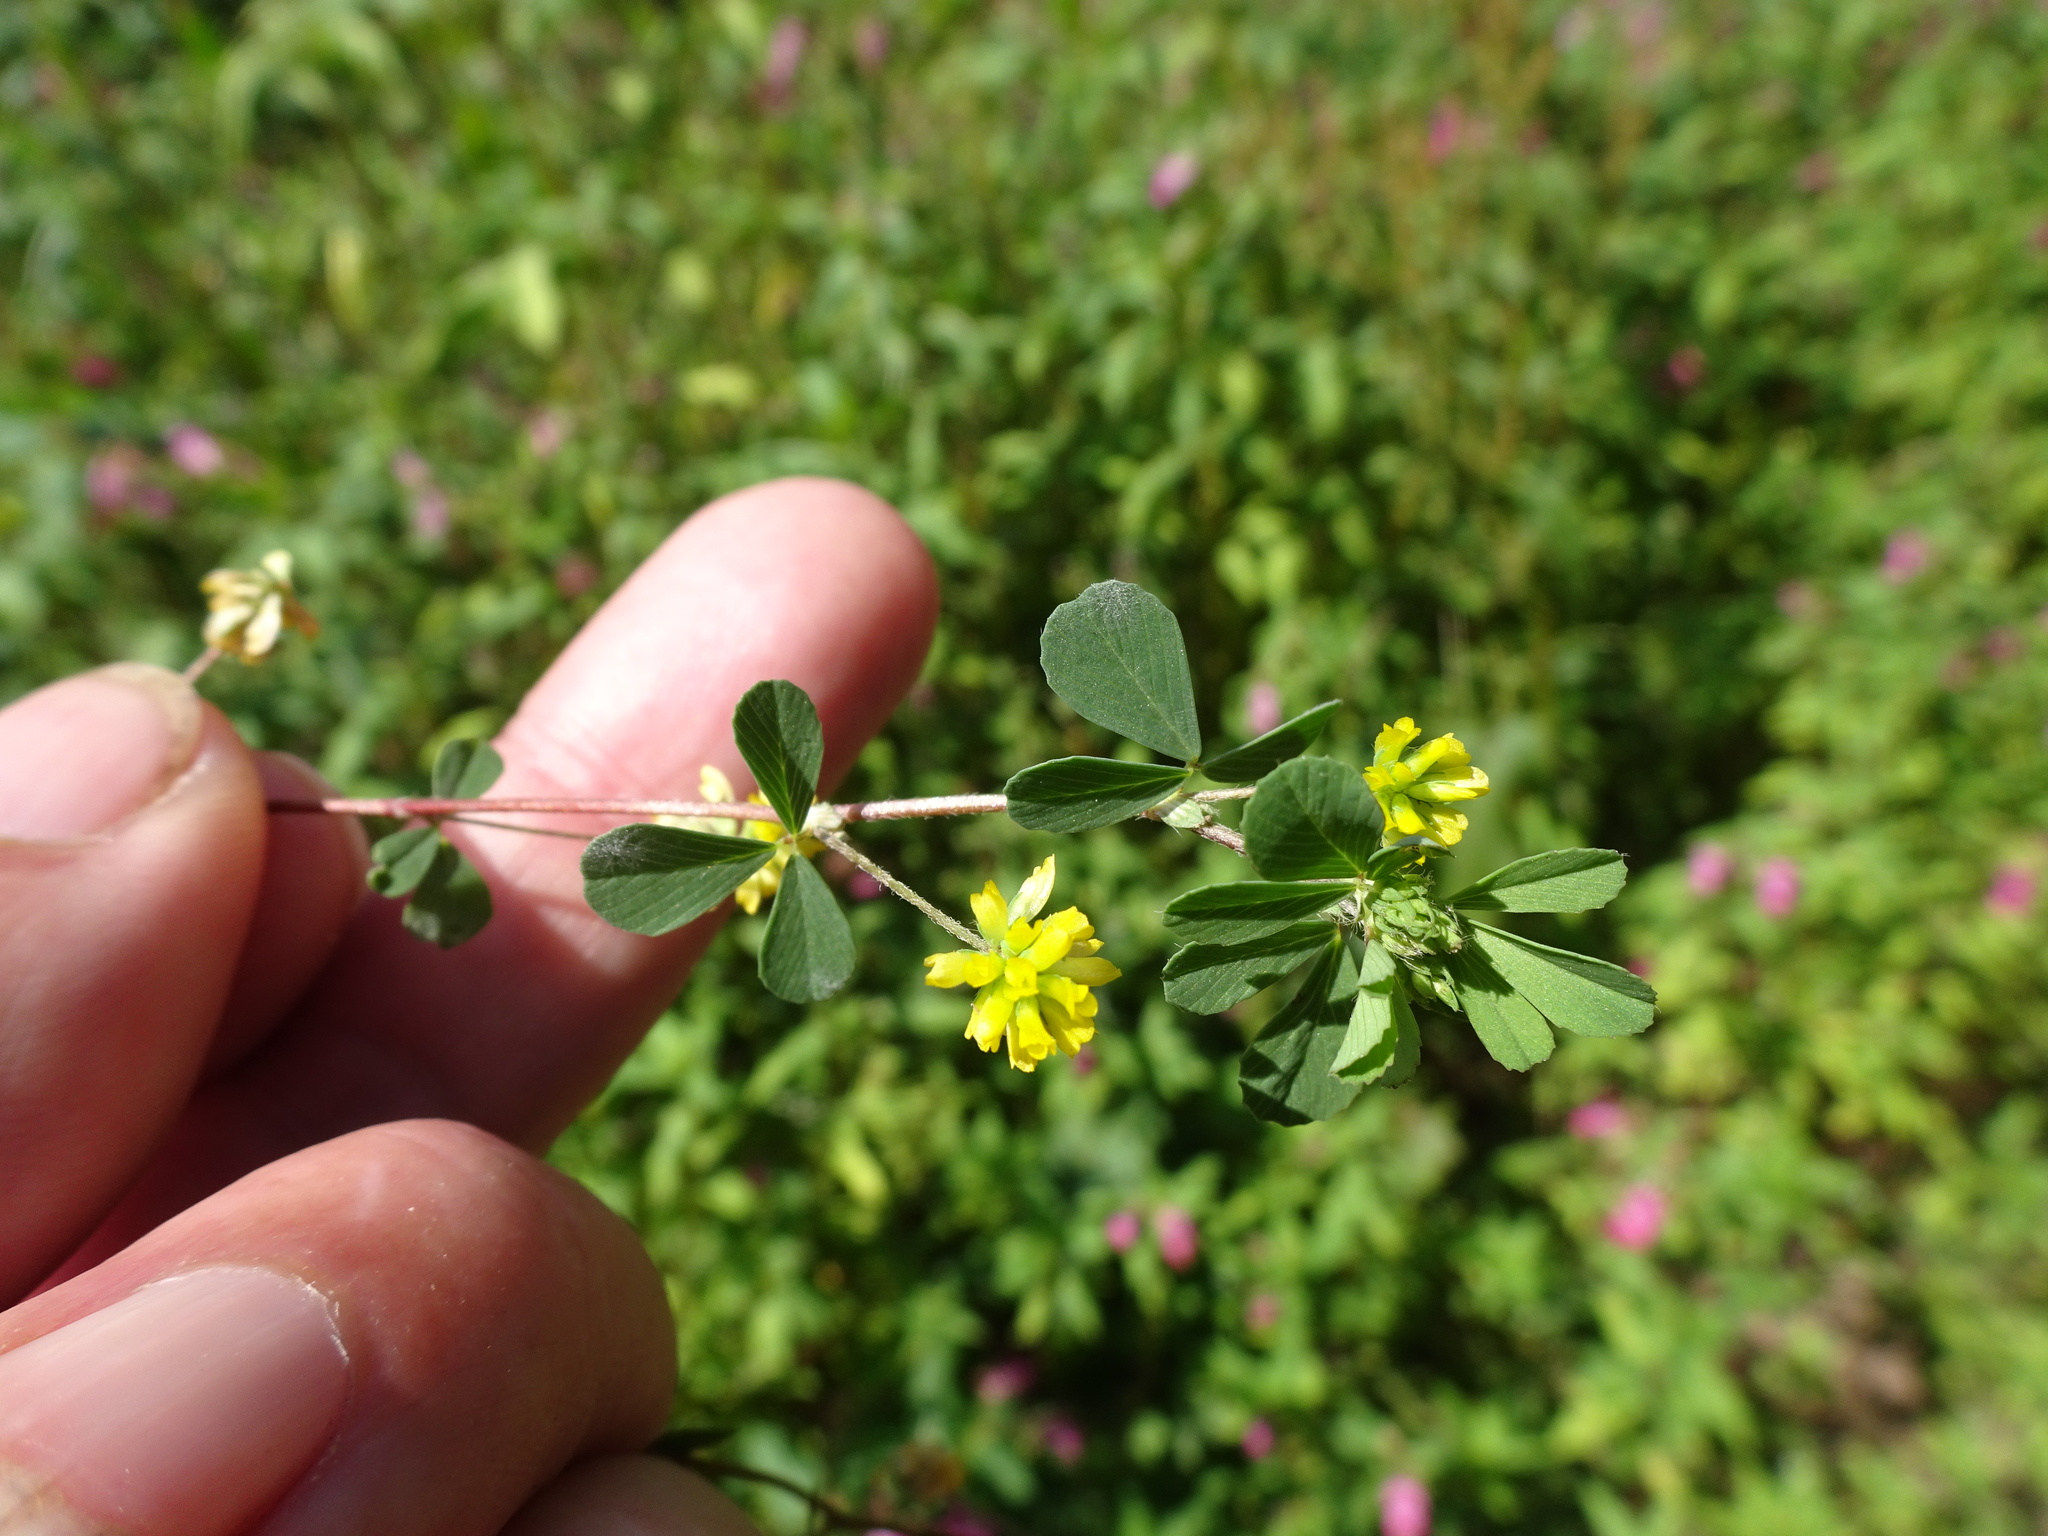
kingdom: Plantae
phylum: Tracheophyta
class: Magnoliopsida
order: Fabales
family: Fabaceae
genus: Trifolium
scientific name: Trifolium dubium
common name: Suckling clover
